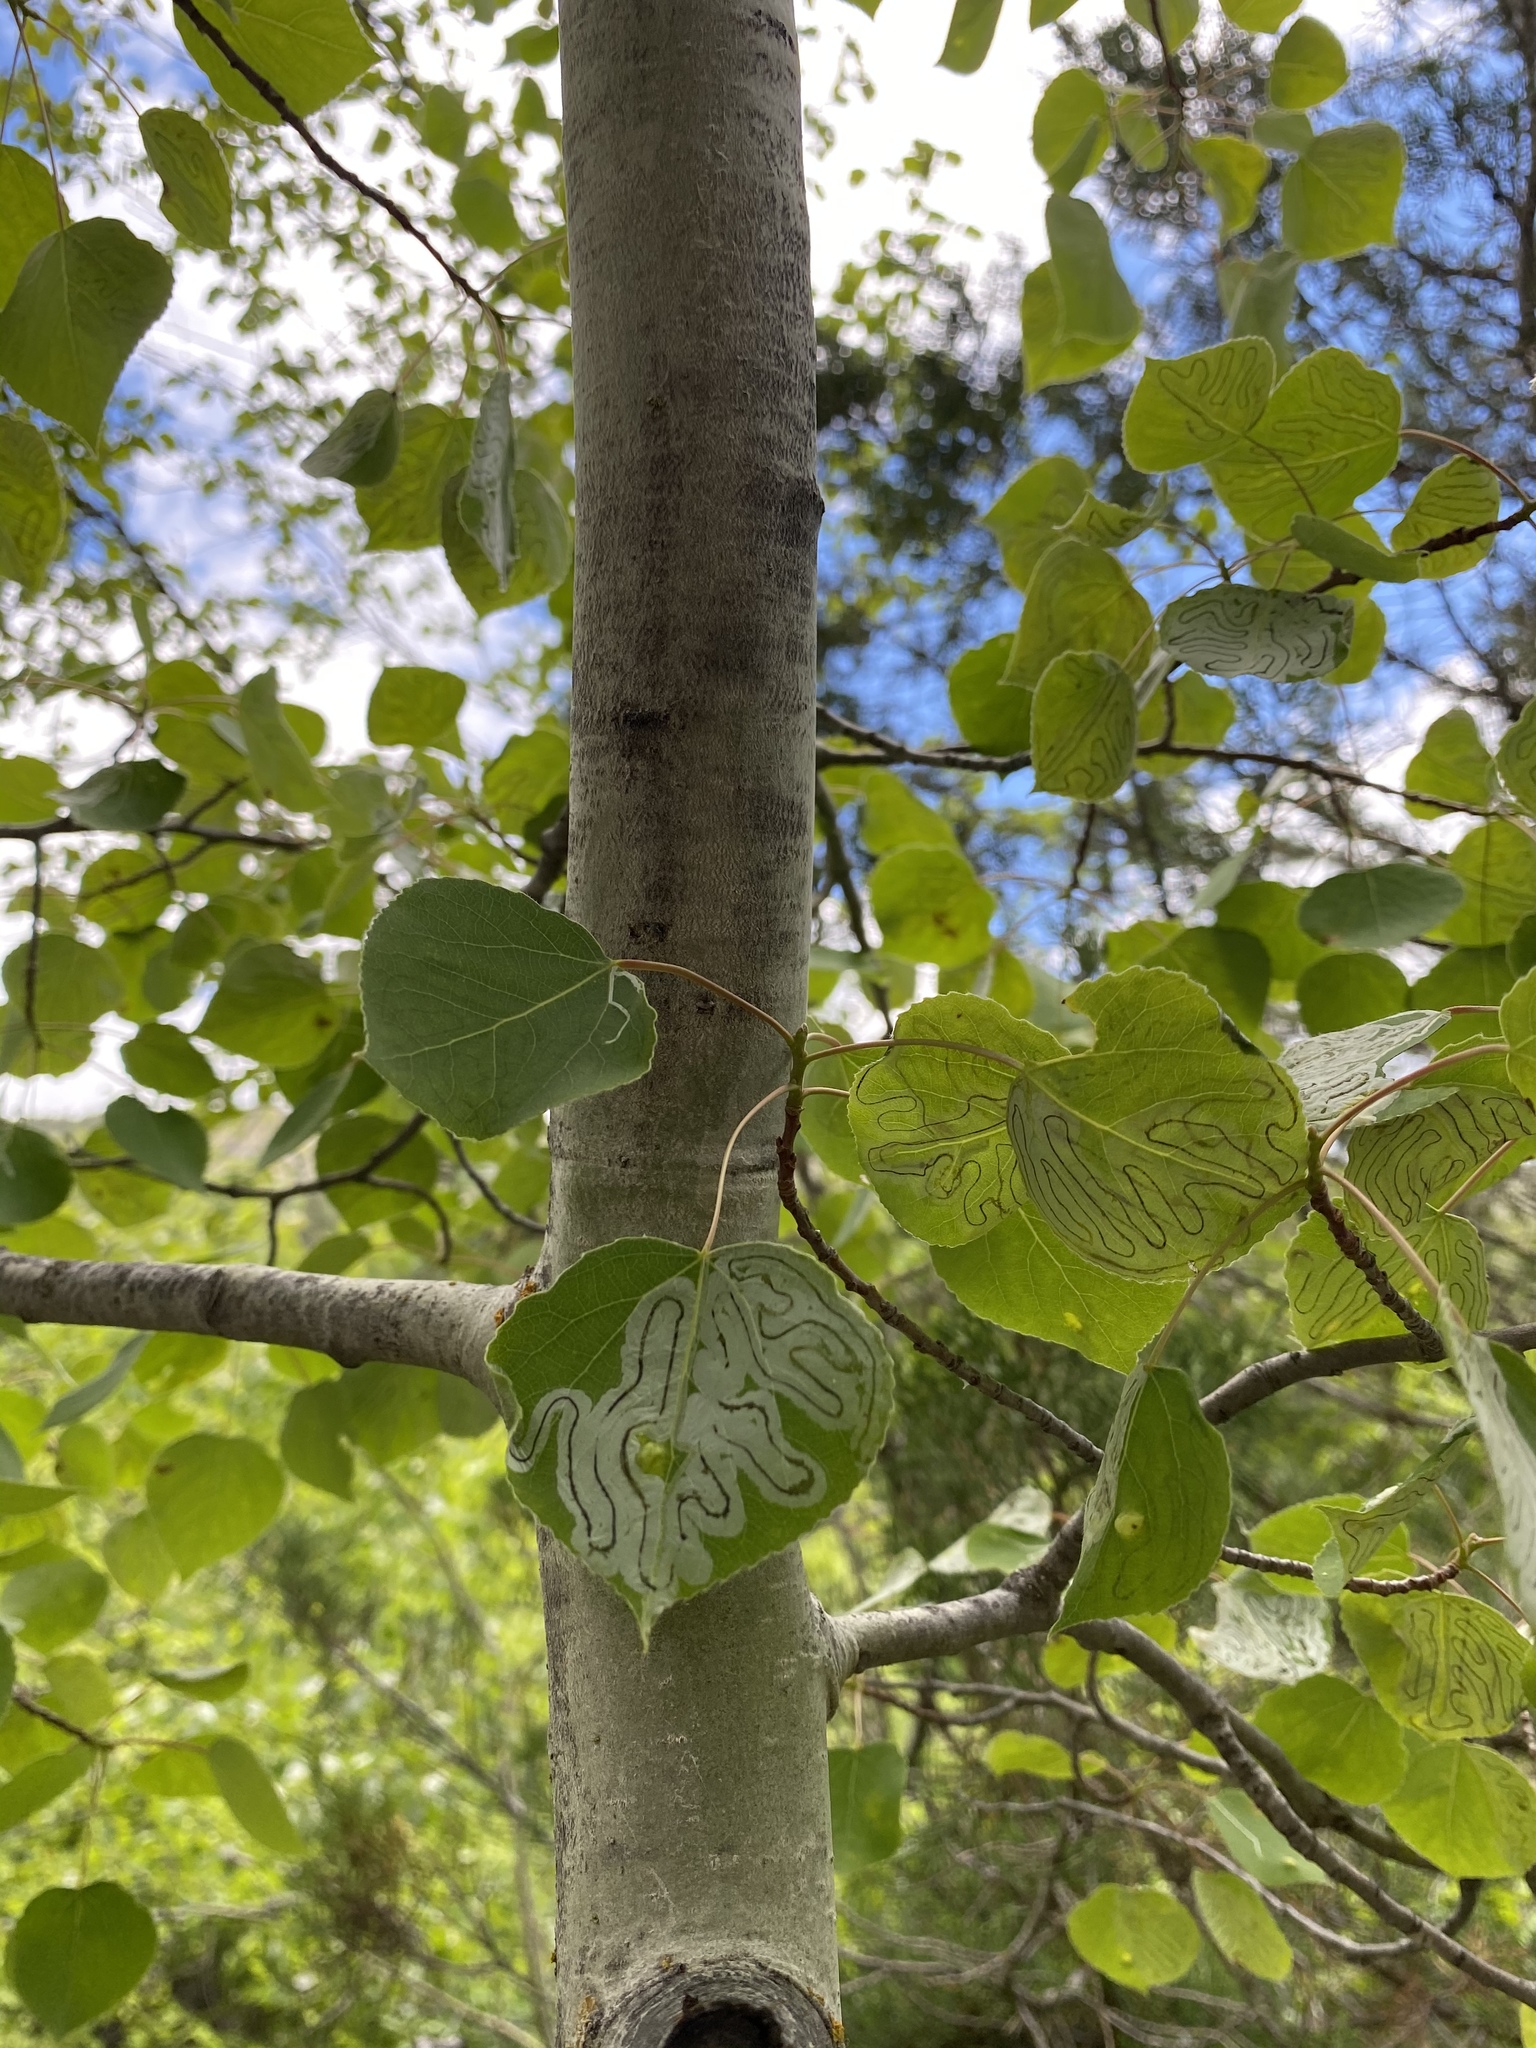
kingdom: Animalia
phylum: Arthropoda
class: Insecta
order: Lepidoptera
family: Gracillariidae
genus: Phyllocnistis
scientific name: Phyllocnistis populiella
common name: Aspen serpentine leafminer moth
